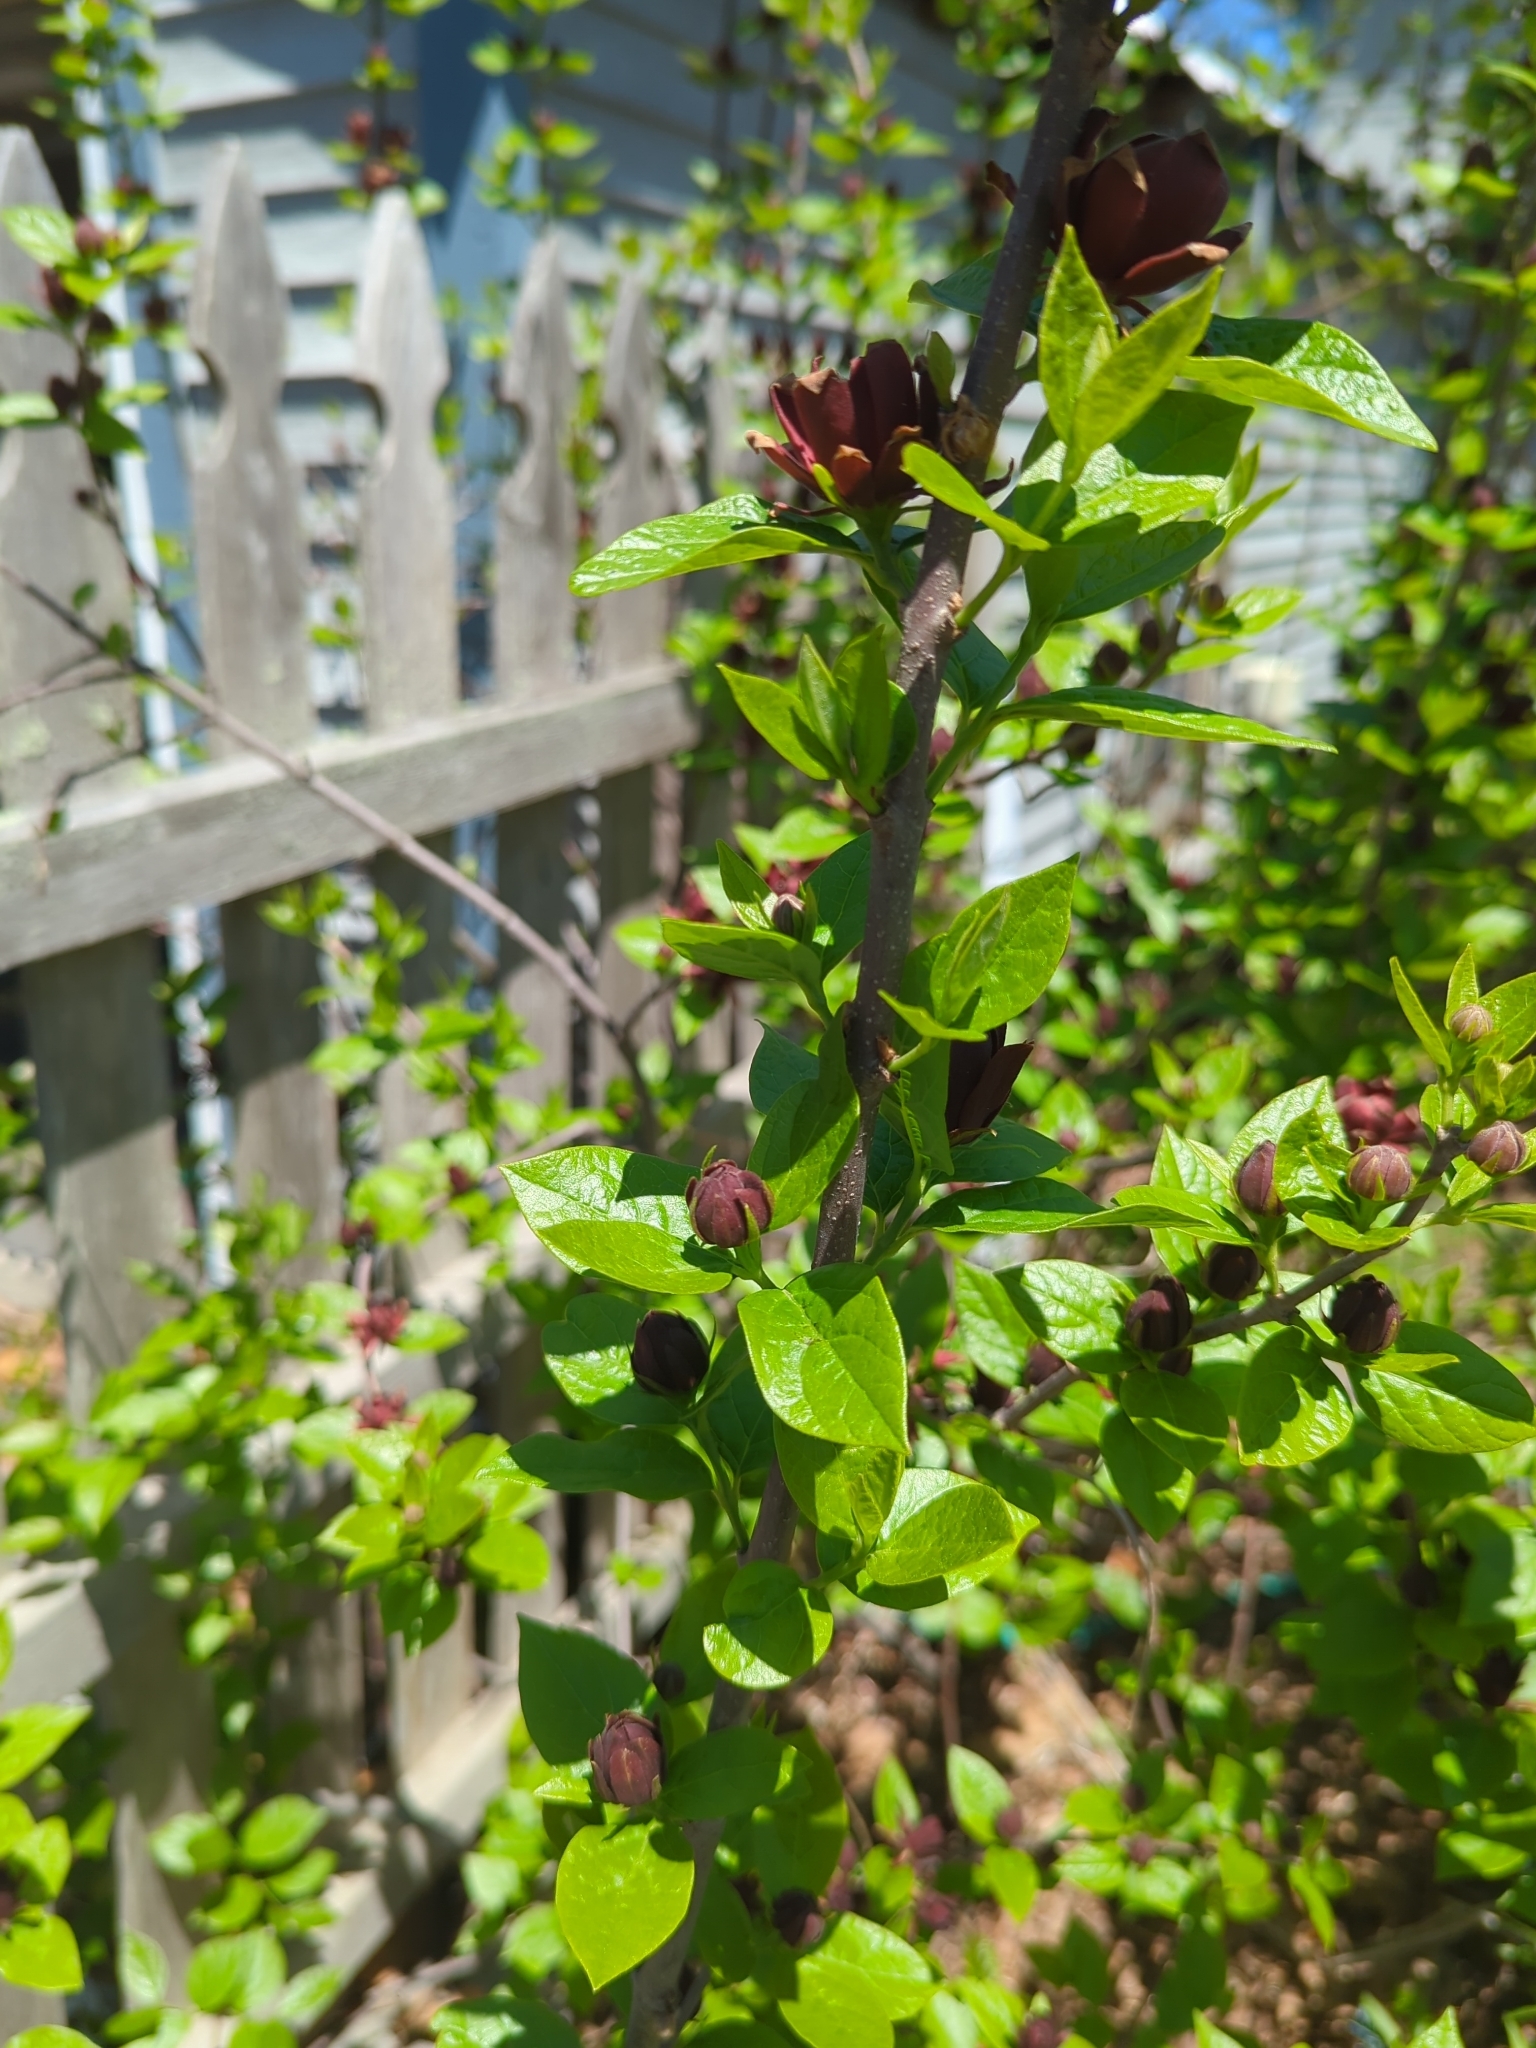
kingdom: Plantae
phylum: Tracheophyta
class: Magnoliopsida
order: Laurales
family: Calycanthaceae
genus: Calycanthus
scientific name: Calycanthus floridus
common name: Carolina-allspice
